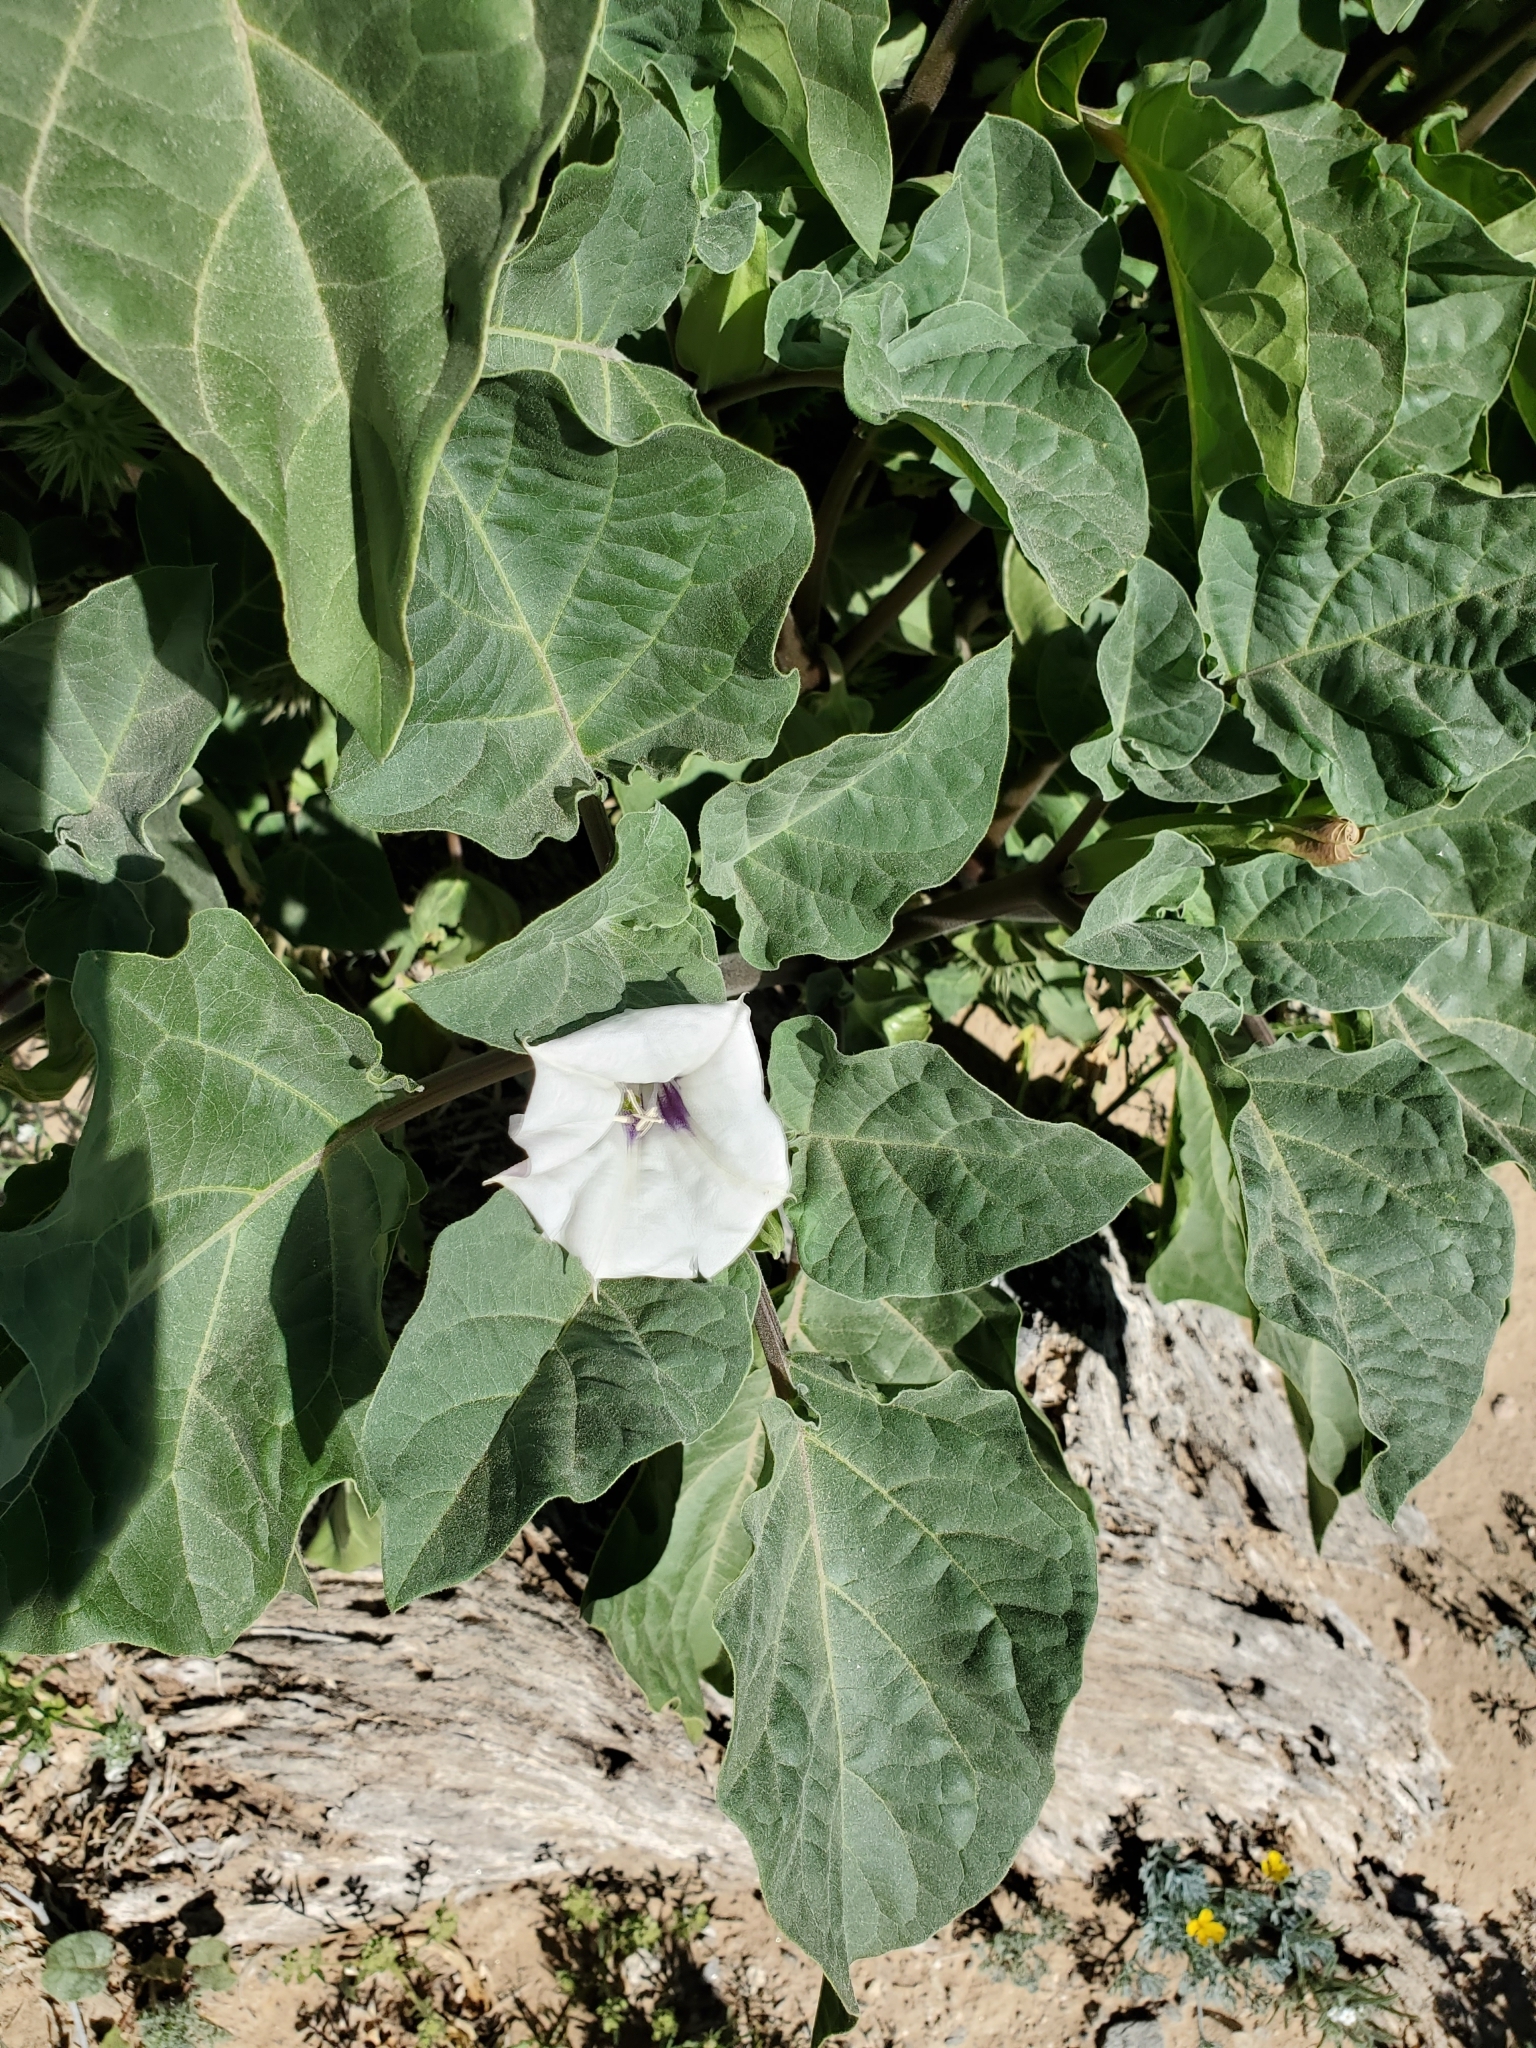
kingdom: Plantae
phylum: Tracheophyta
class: Magnoliopsida
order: Solanales
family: Solanaceae
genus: Datura
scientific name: Datura discolor
